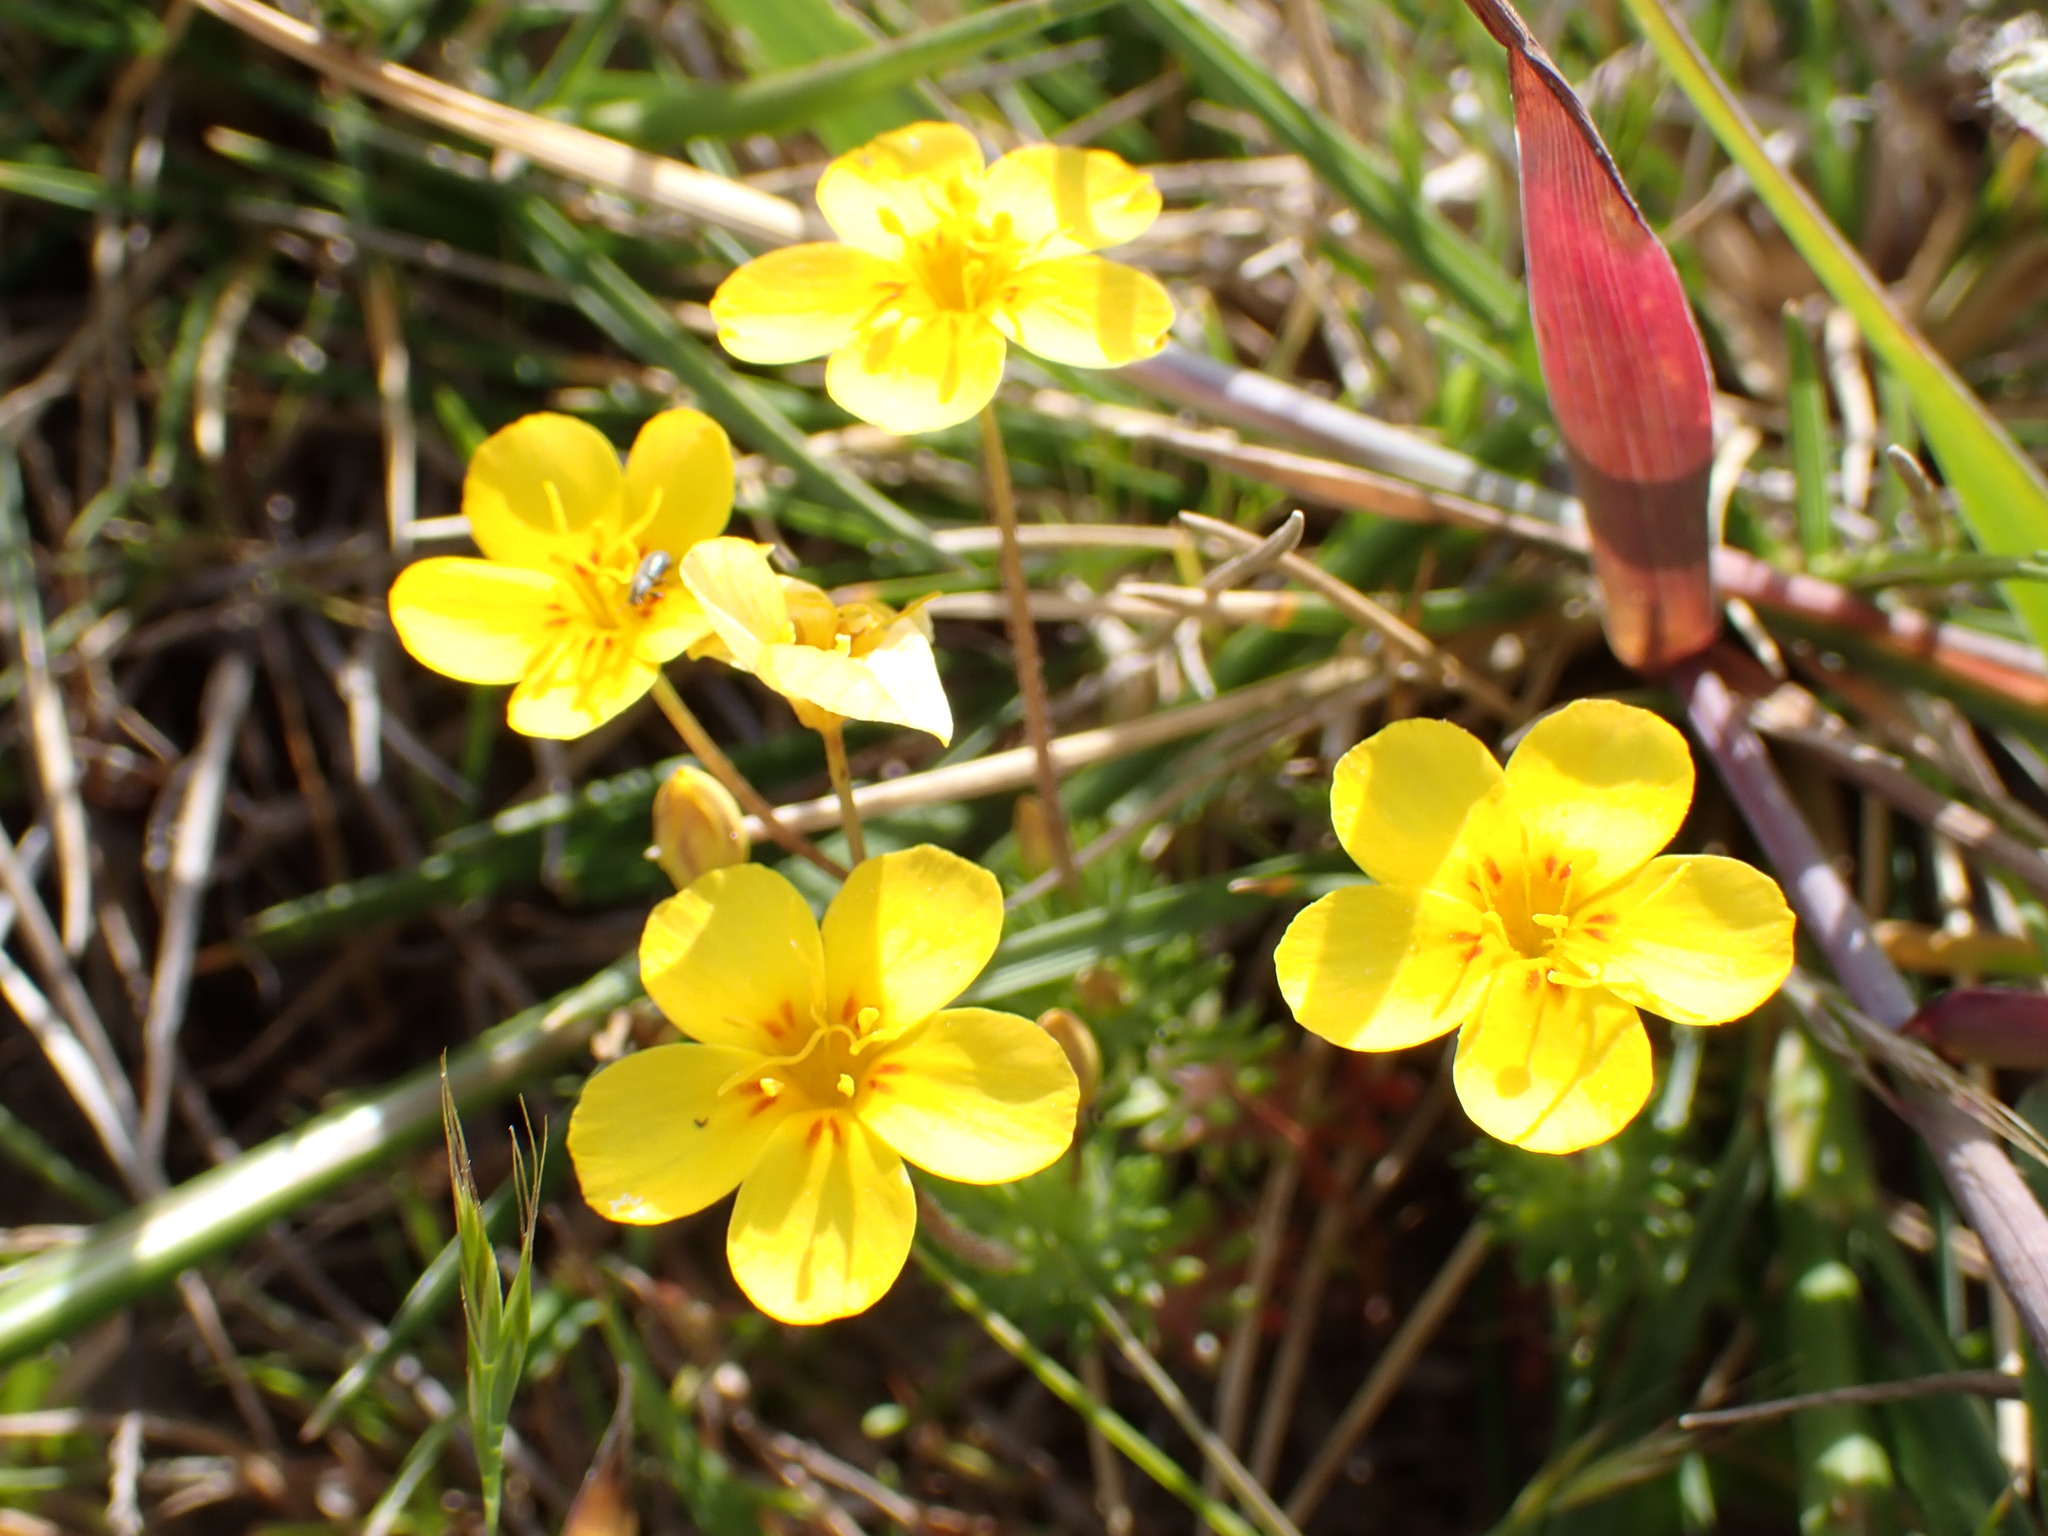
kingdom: Plantae
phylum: Tracheophyta
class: Magnoliopsida
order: Ericales
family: Polemoniaceae
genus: Leptosiphon
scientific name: Leptosiphon croceus
